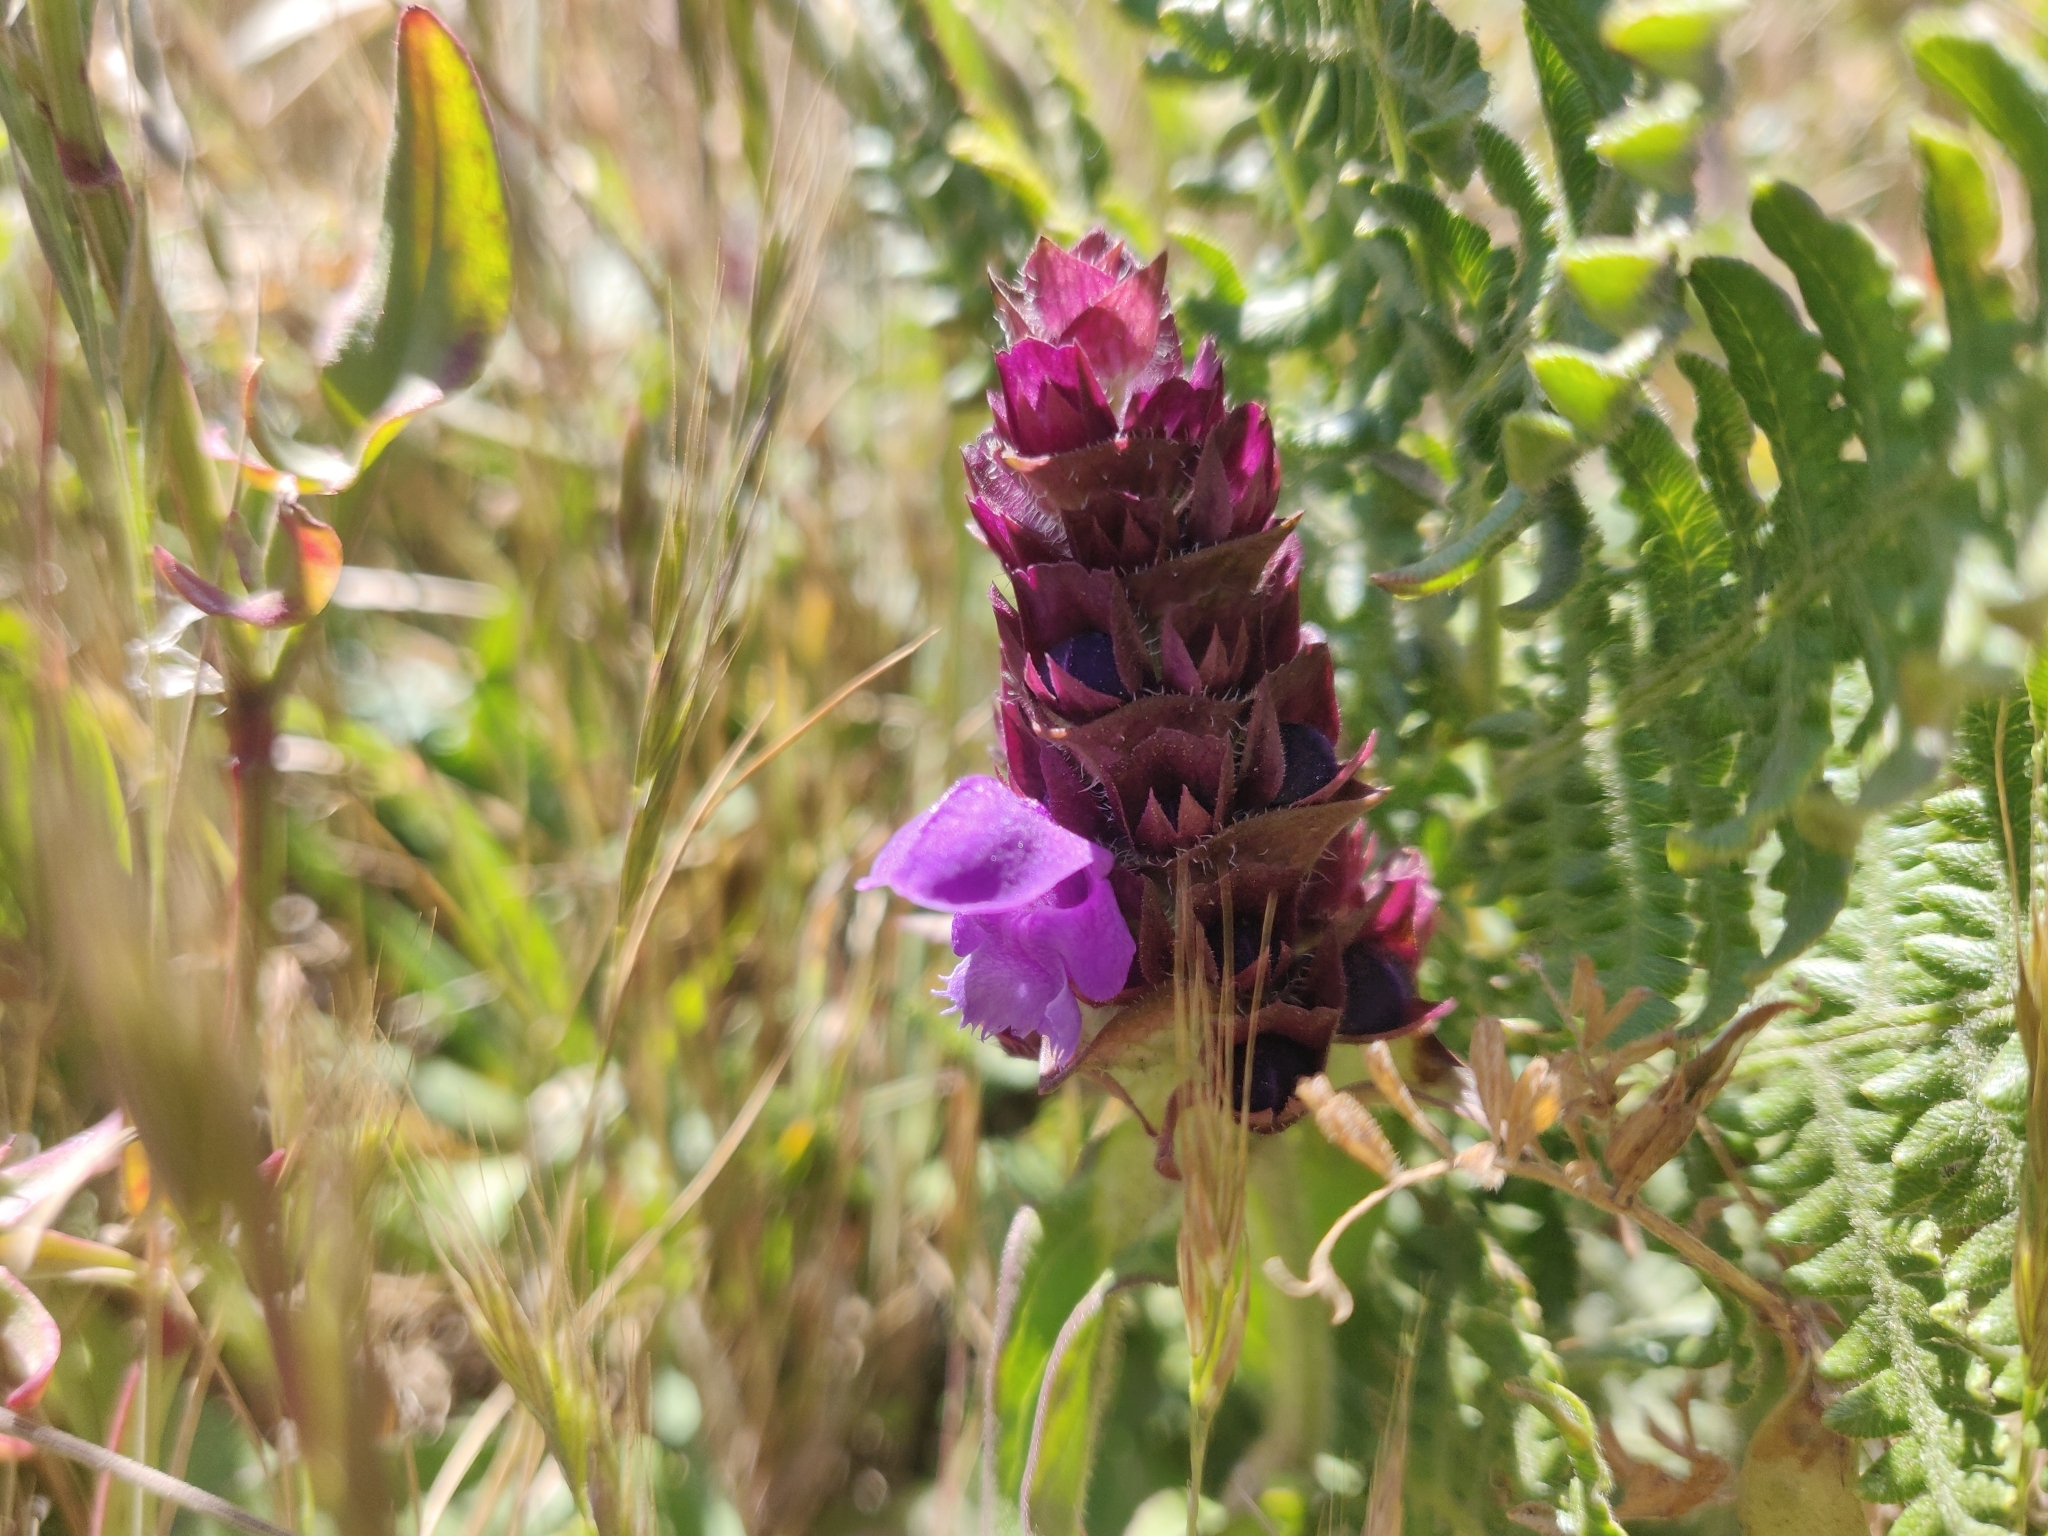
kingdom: Plantae
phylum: Tracheophyta
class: Magnoliopsida
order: Lamiales
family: Lamiaceae
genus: Prunella
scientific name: Prunella vulgaris
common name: Heal-all
